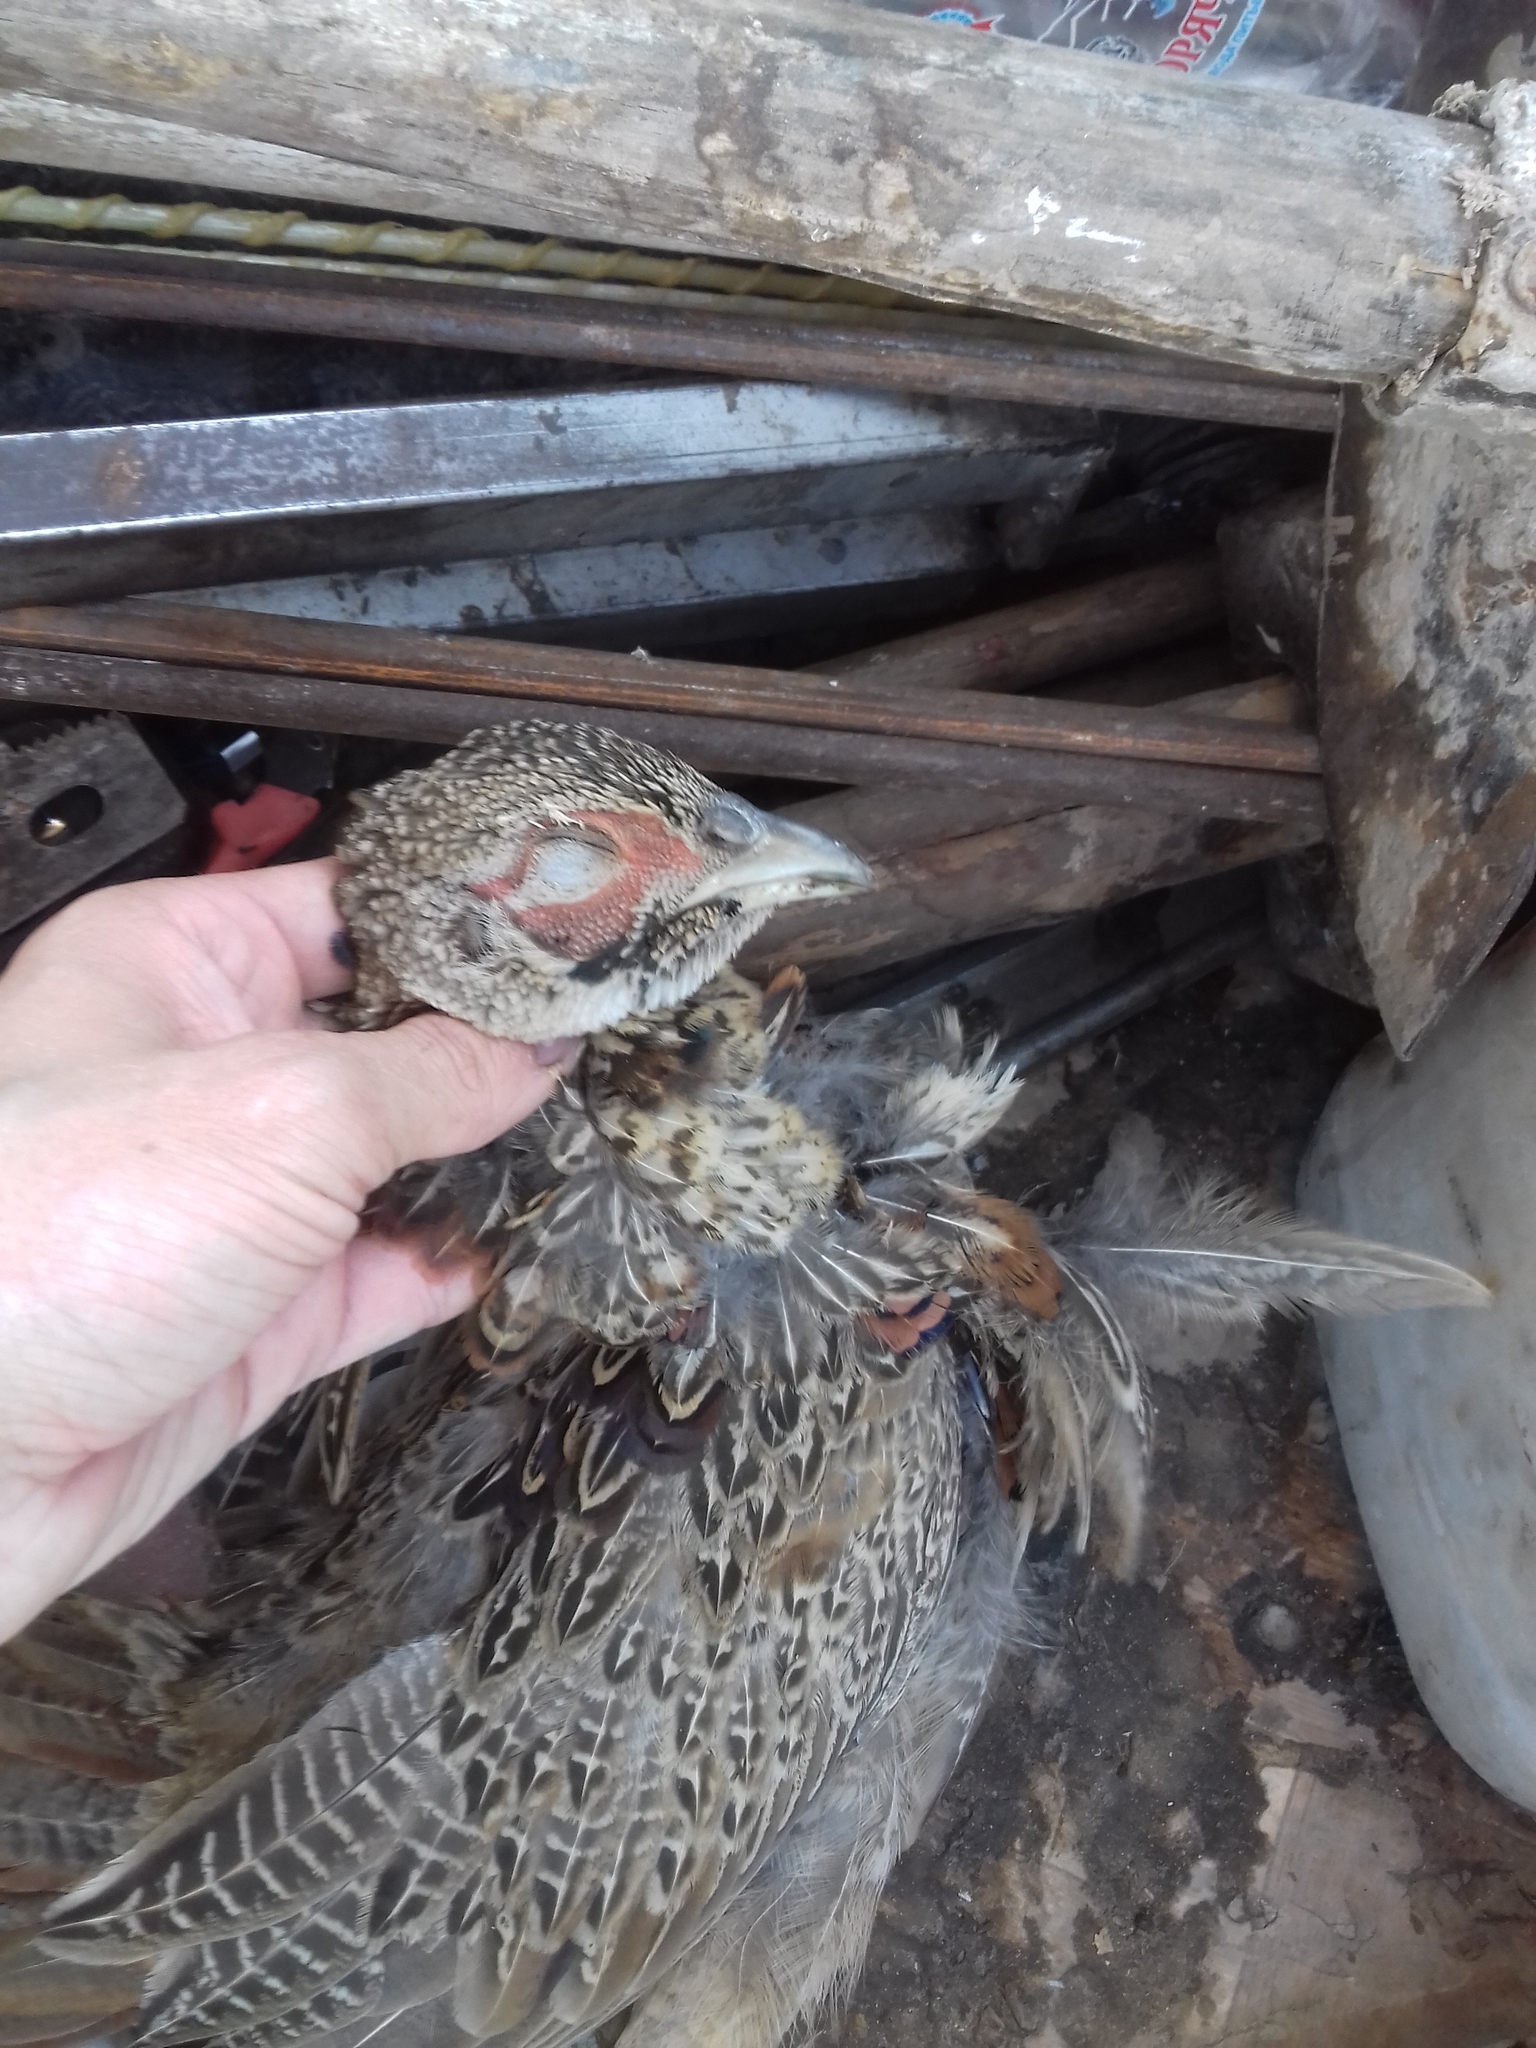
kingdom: Animalia
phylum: Chordata
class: Aves
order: Galliformes
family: Phasianidae
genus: Phasianus
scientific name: Phasianus colchicus
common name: Common pheasant
